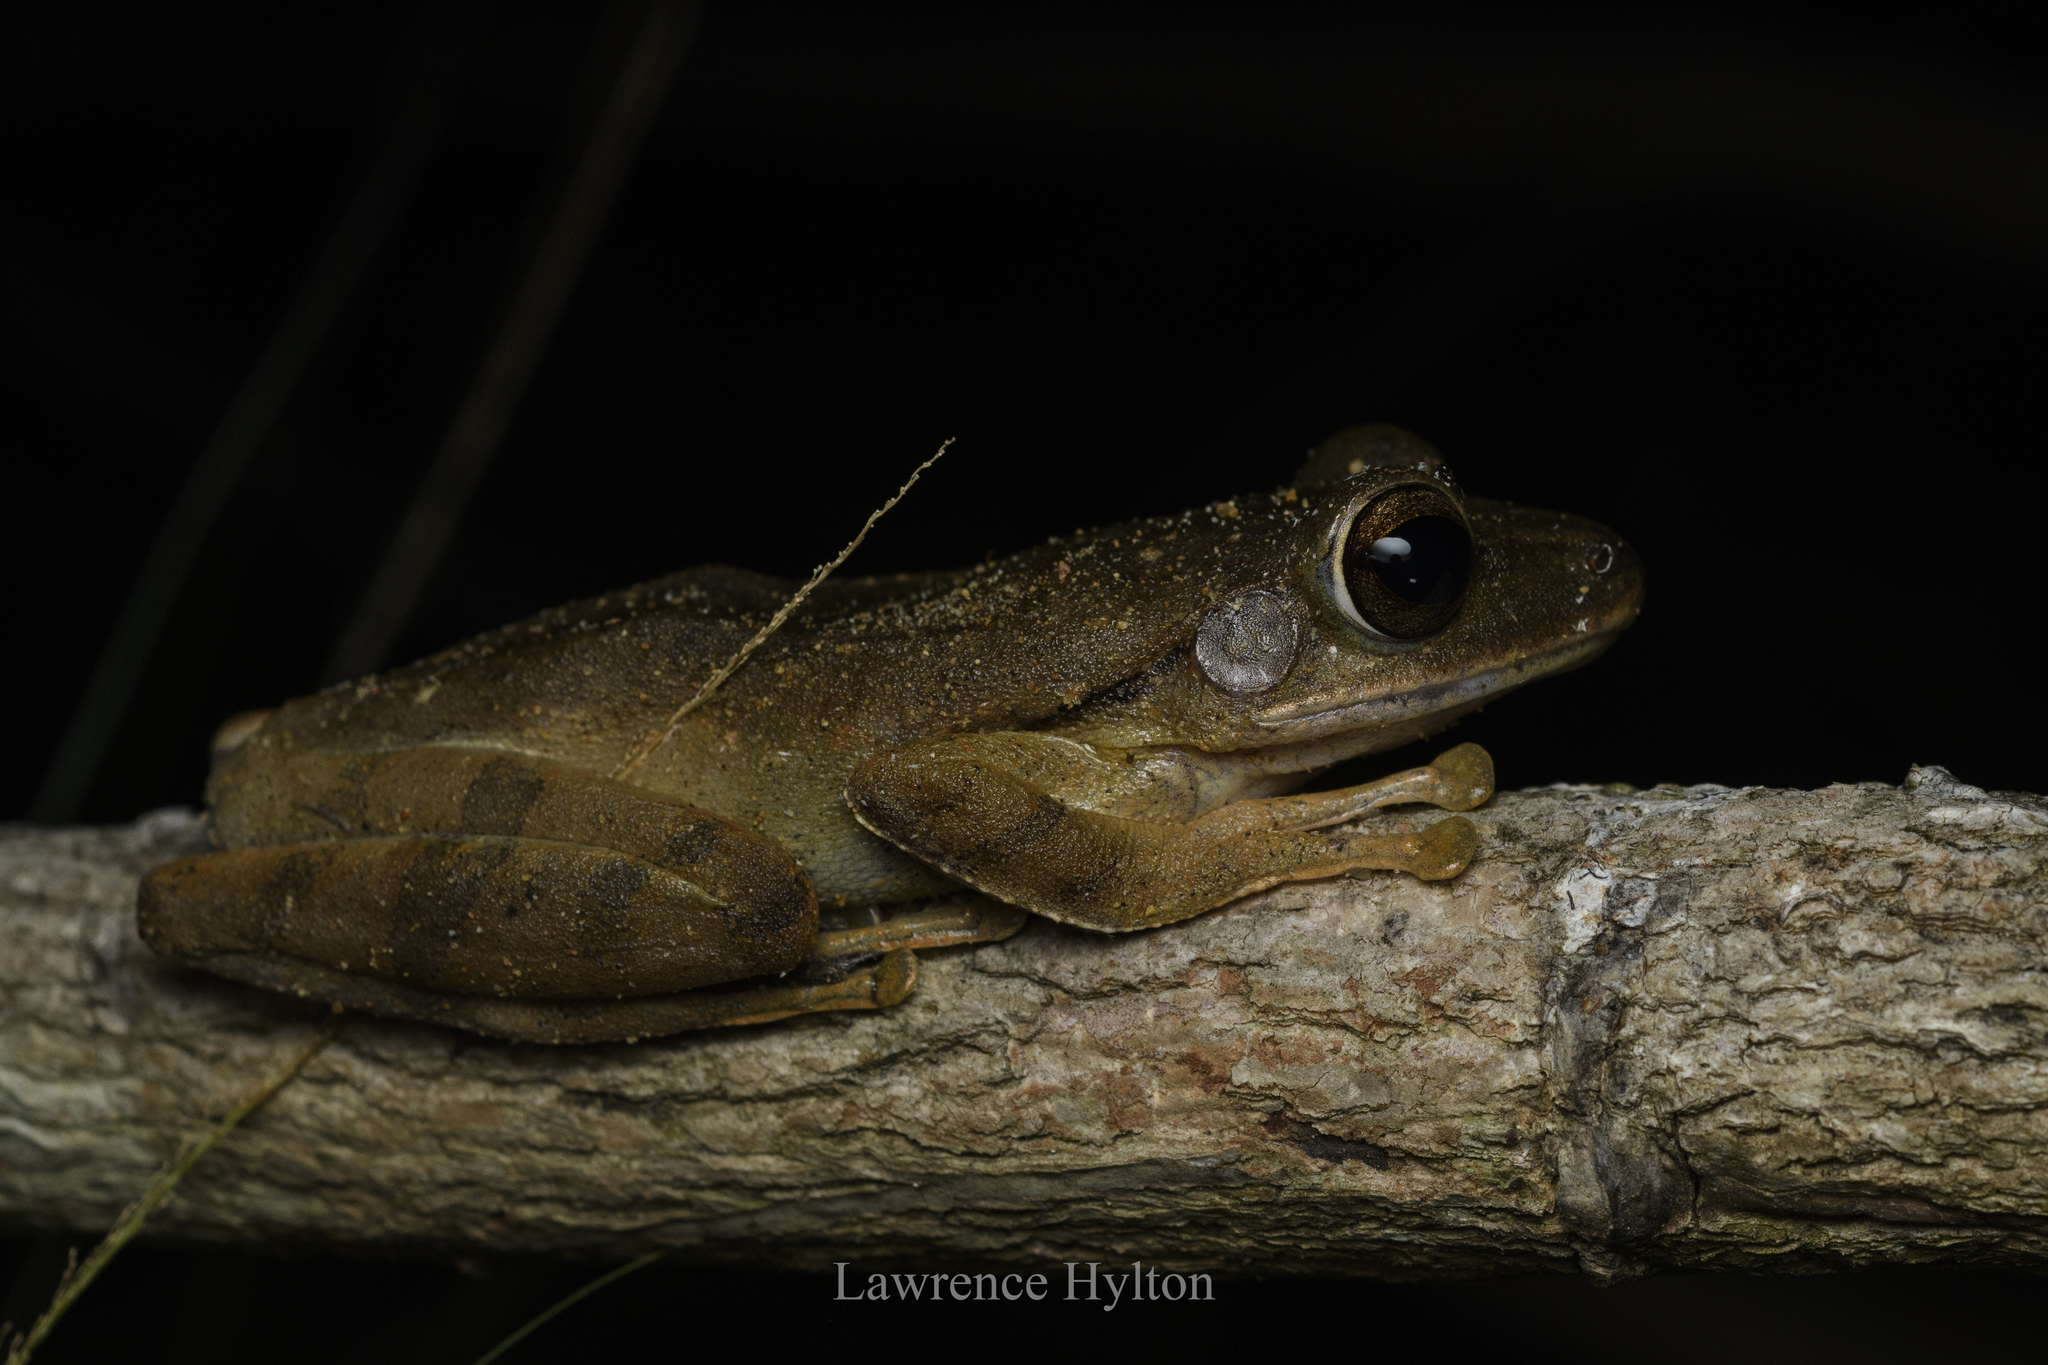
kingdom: Animalia
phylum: Chordata
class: Amphibia
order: Anura
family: Rhacophoridae
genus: Polypedates
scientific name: Polypedates leucomystax
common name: Common tree frog/four-lined tree frog
